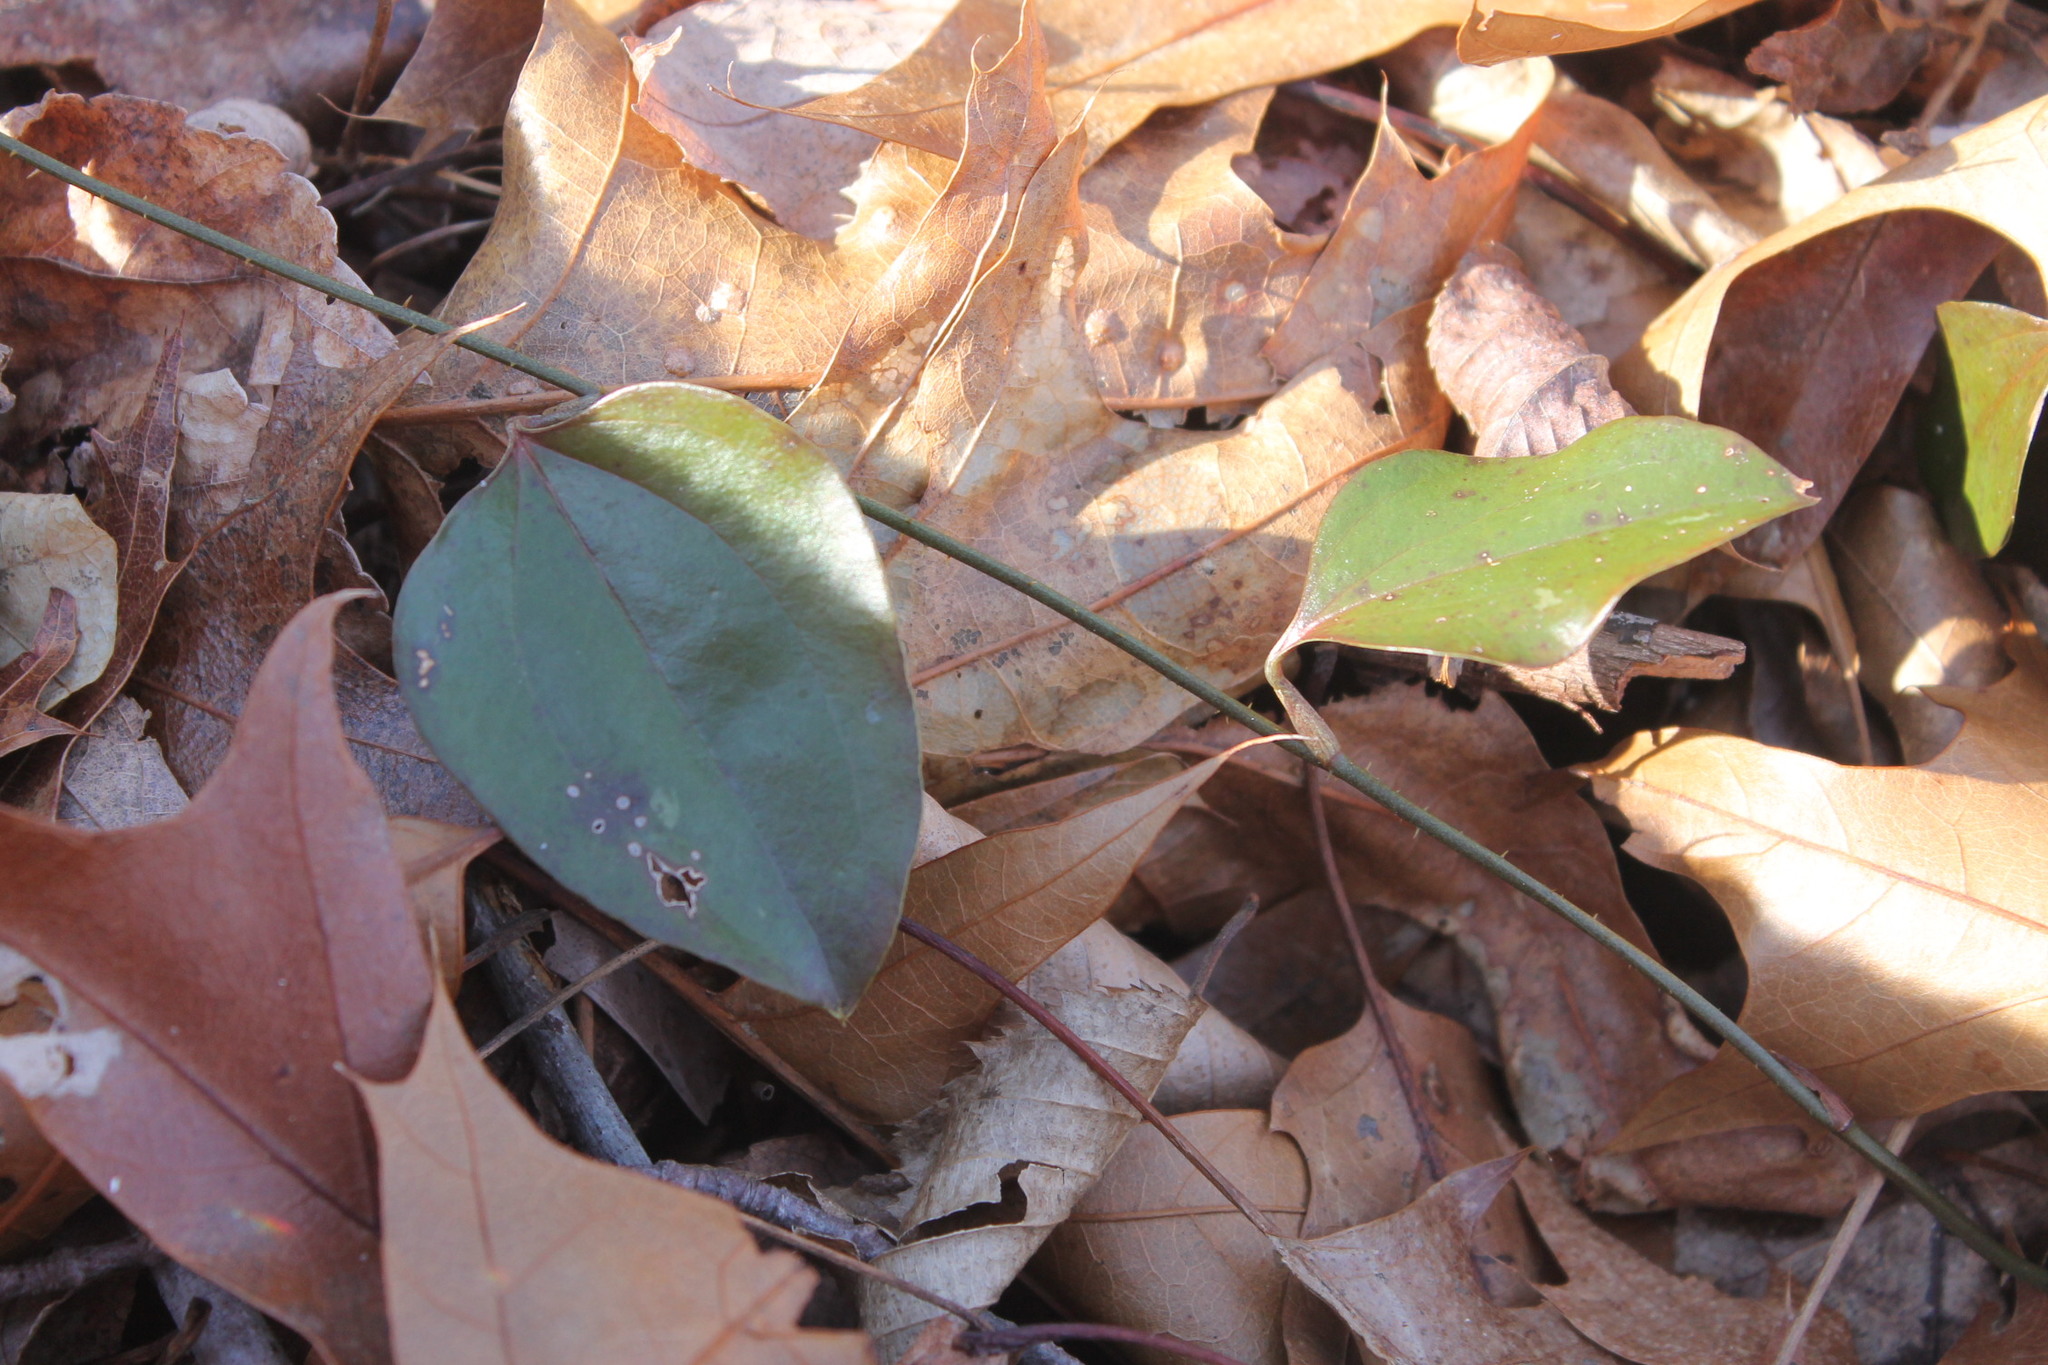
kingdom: Plantae
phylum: Tracheophyta
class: Liliopsida
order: Liliales
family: Smilacaceae
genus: Smilax
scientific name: Smilax glauca
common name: Cat greenbrier
